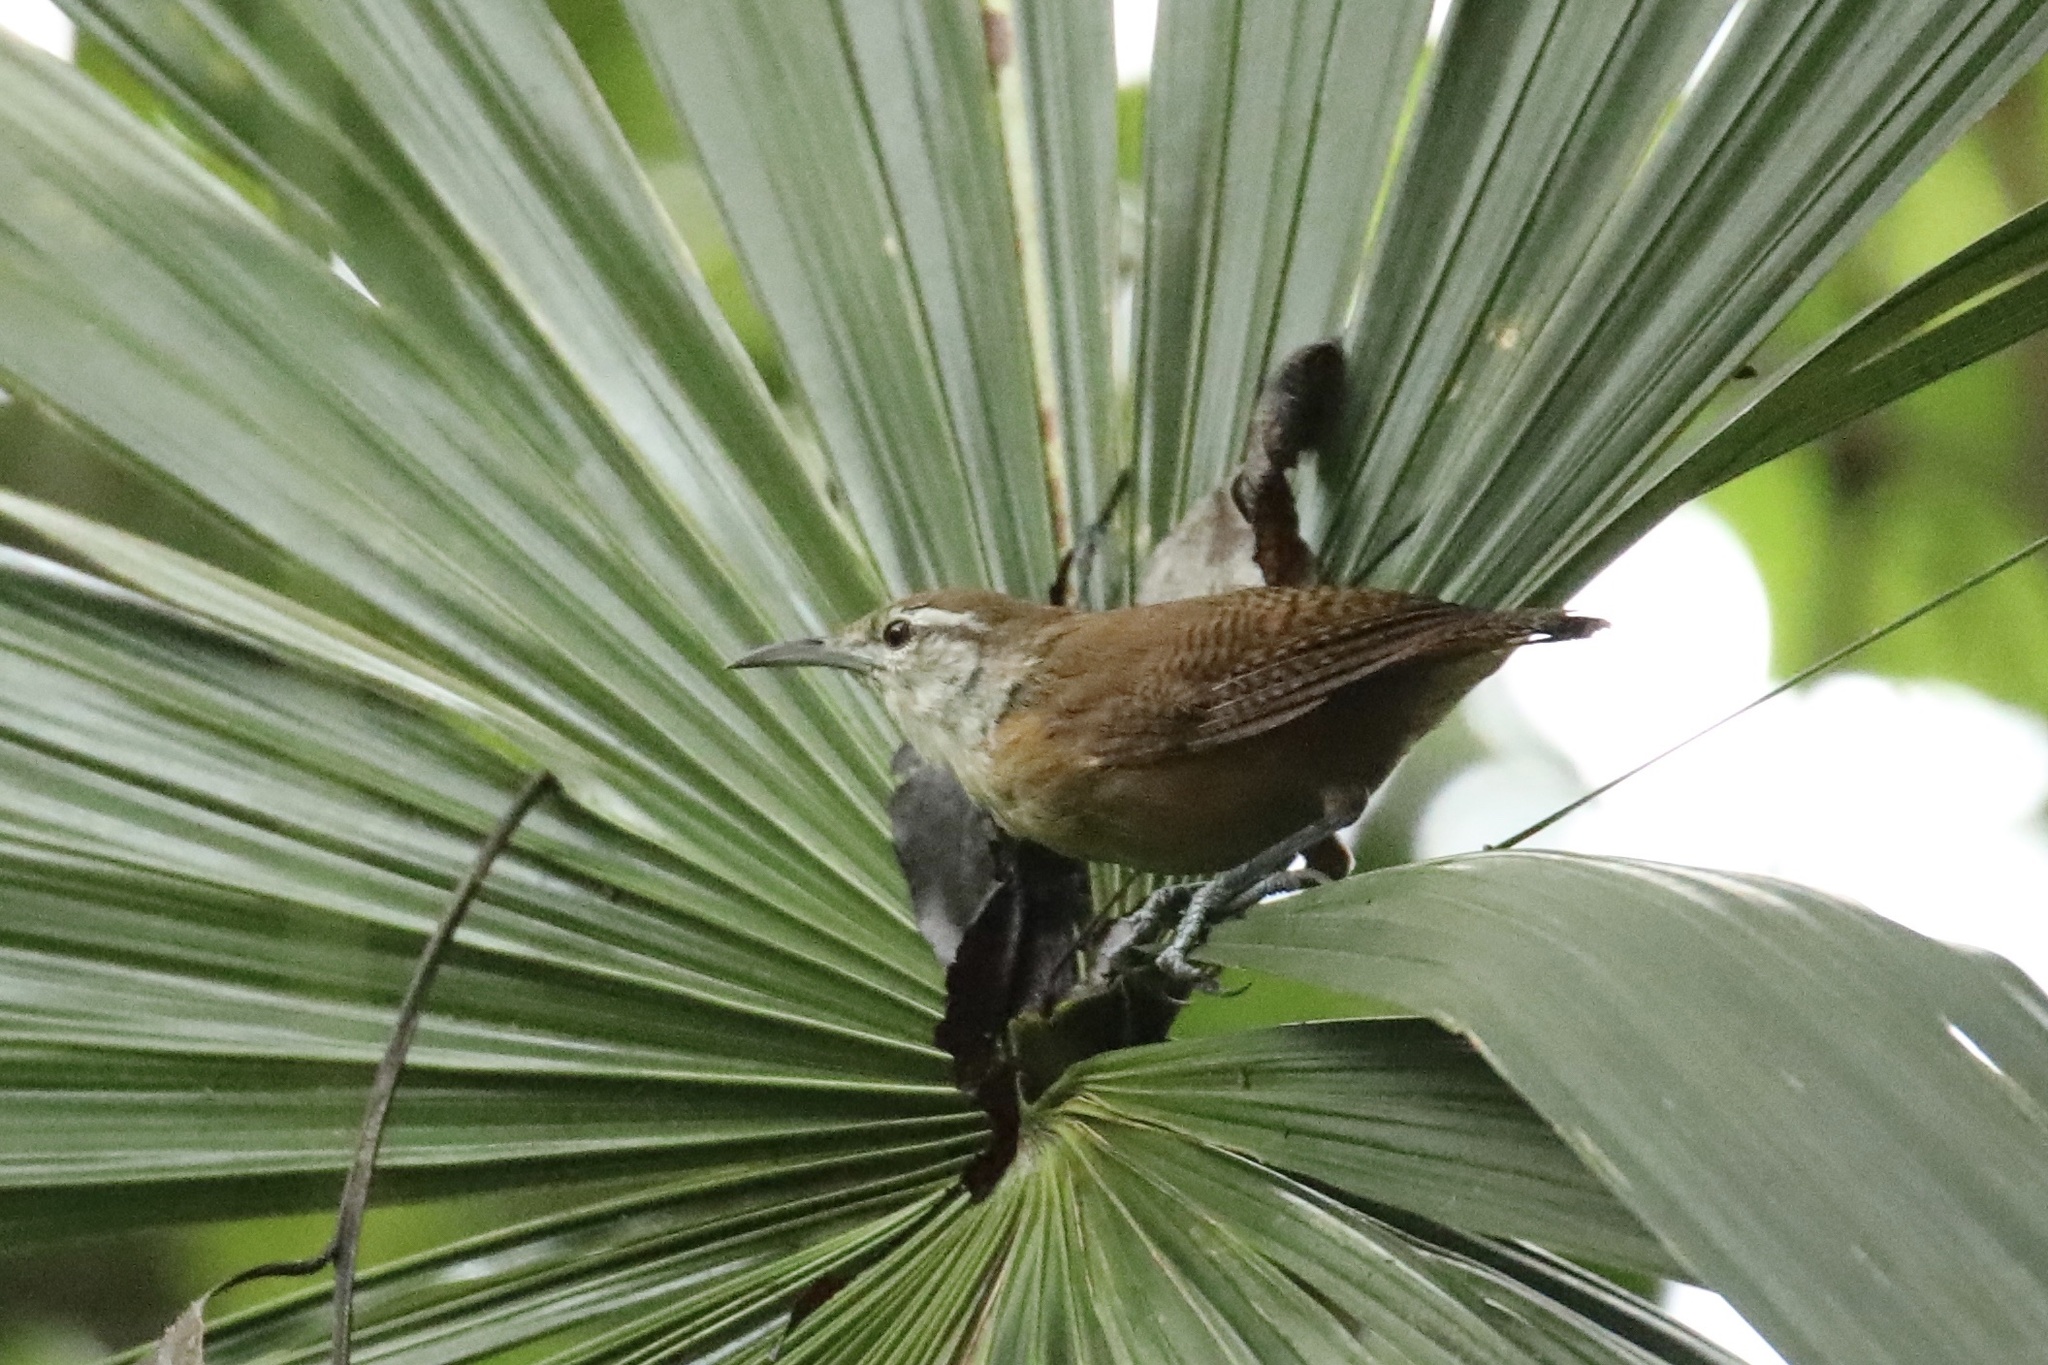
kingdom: Animalia
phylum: Chordata
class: Aves
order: Passeriformes
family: Troglodytidae
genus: Cantorchilus
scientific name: Cantorchilus leucotis
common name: Buff-breasted wren
